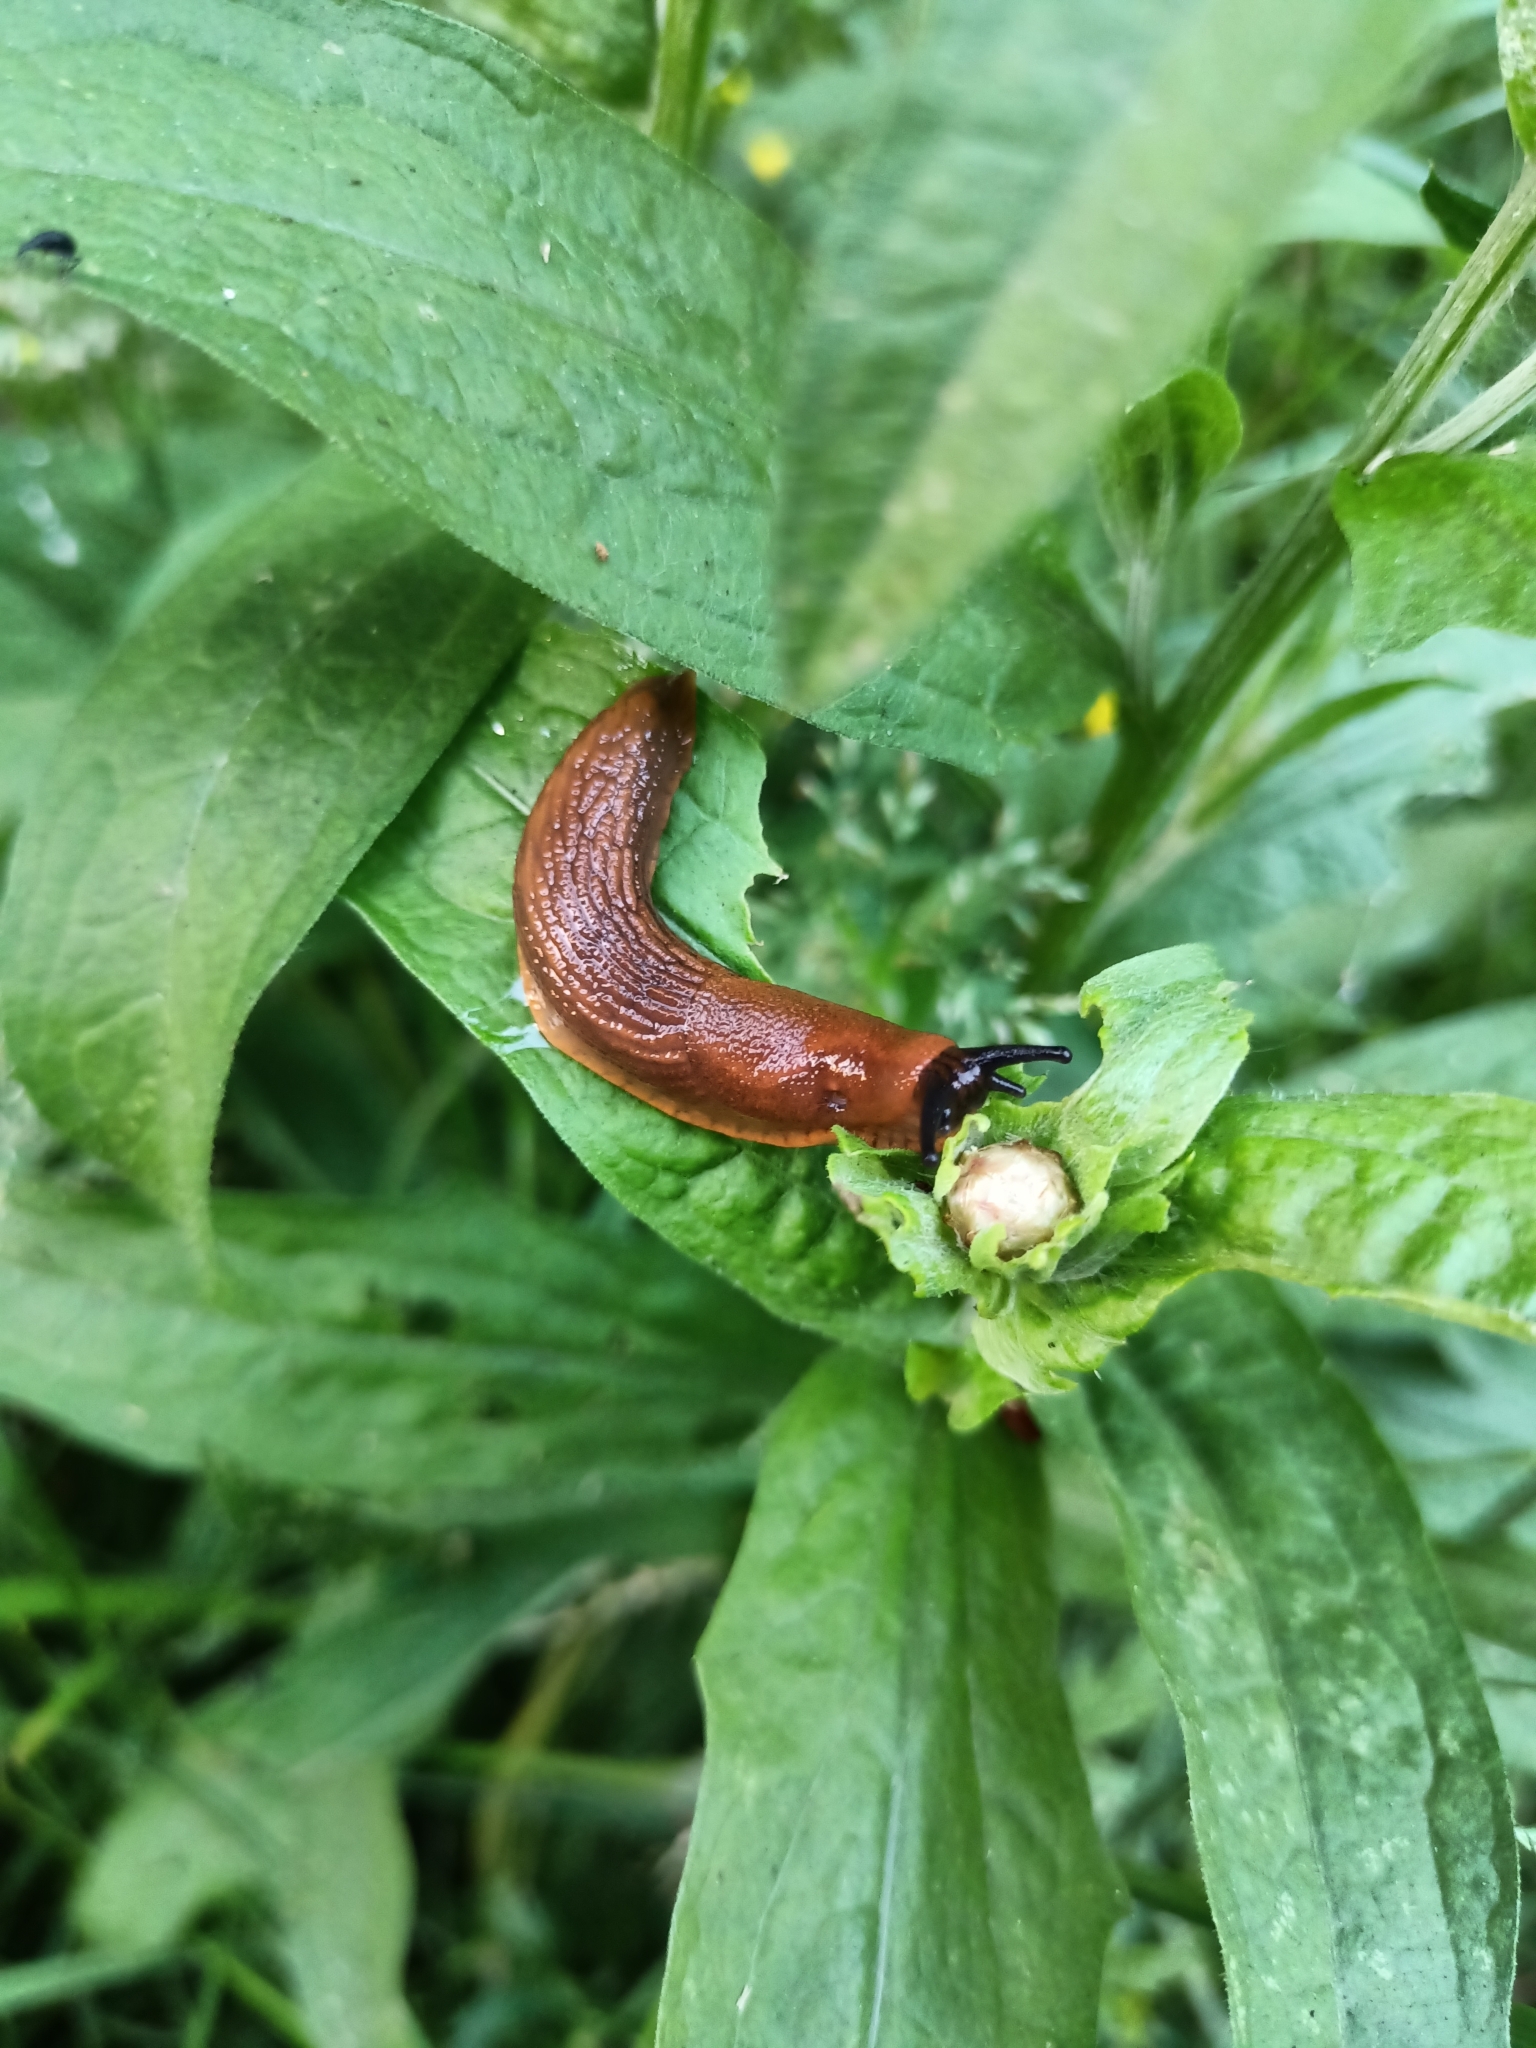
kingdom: Animalia
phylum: Mollusca
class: Gastropoda
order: Stylommatophora
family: Arionidae
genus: Arion
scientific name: Arion vulgaris
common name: Lusitanian slug
